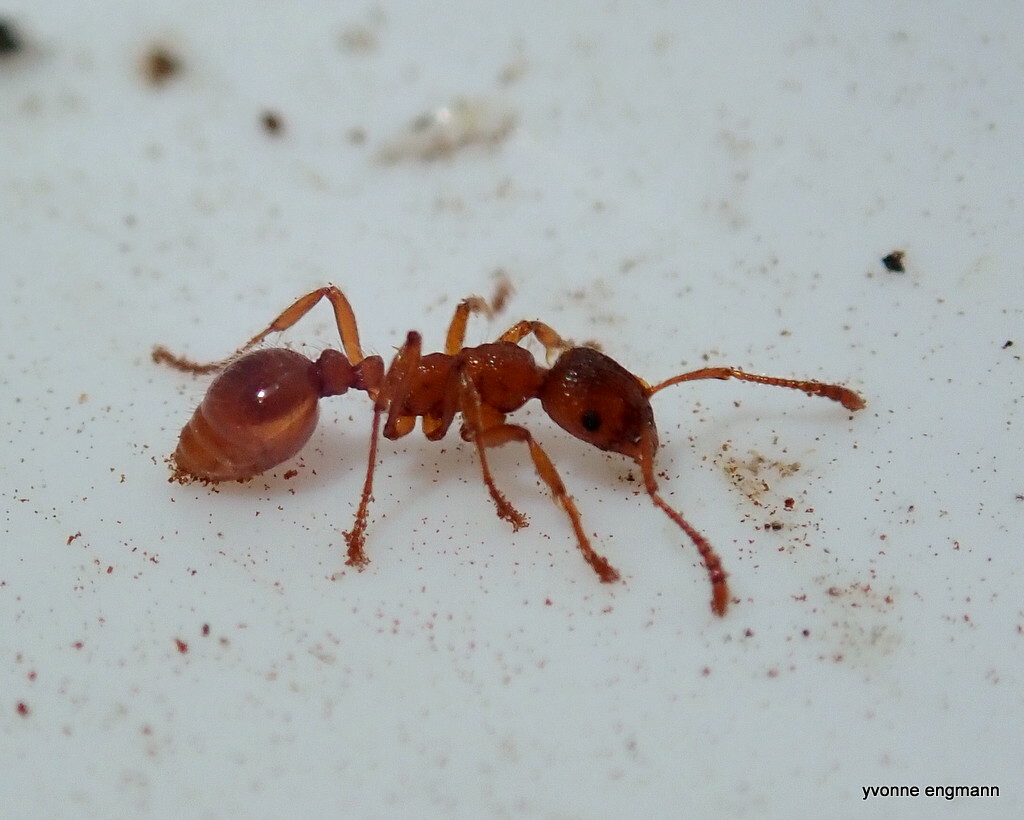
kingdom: Animalia
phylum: Arthropoda
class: Insecta
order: Hymenoptera
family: Formicidae
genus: Myrmica
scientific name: Myrmica rubra
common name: European fire ant
